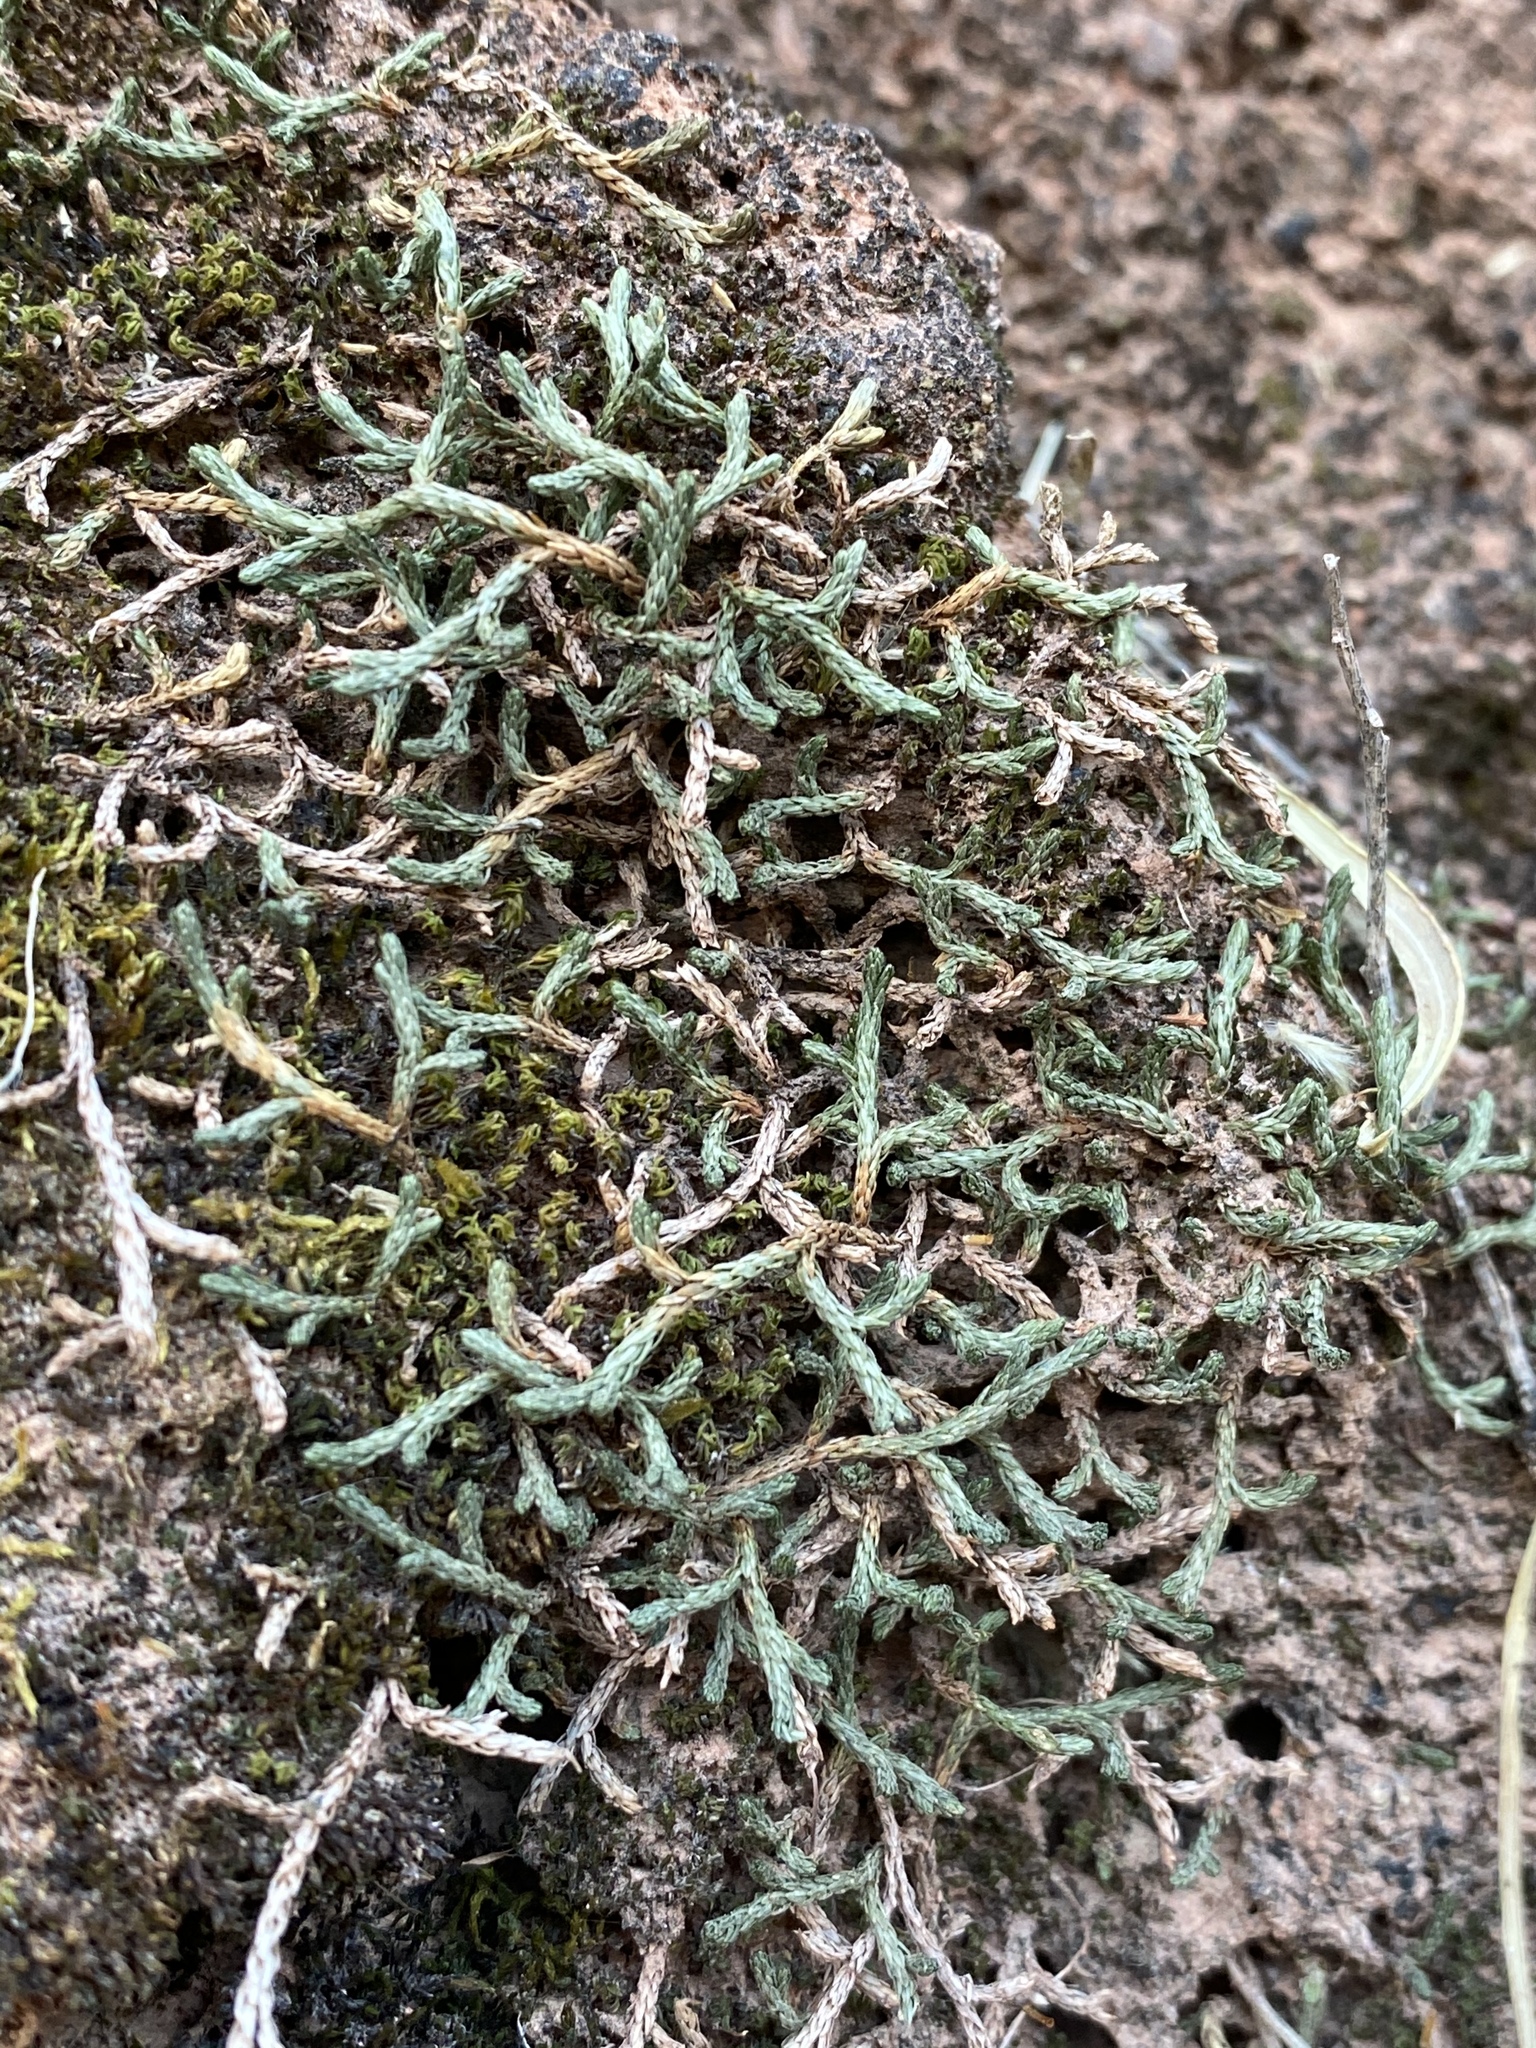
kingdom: Plantae
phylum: Tracheophyta
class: Lycopodiopsida
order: Selaginellales
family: Selaginellaceae
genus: Selaginella
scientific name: Selaginella mutica
